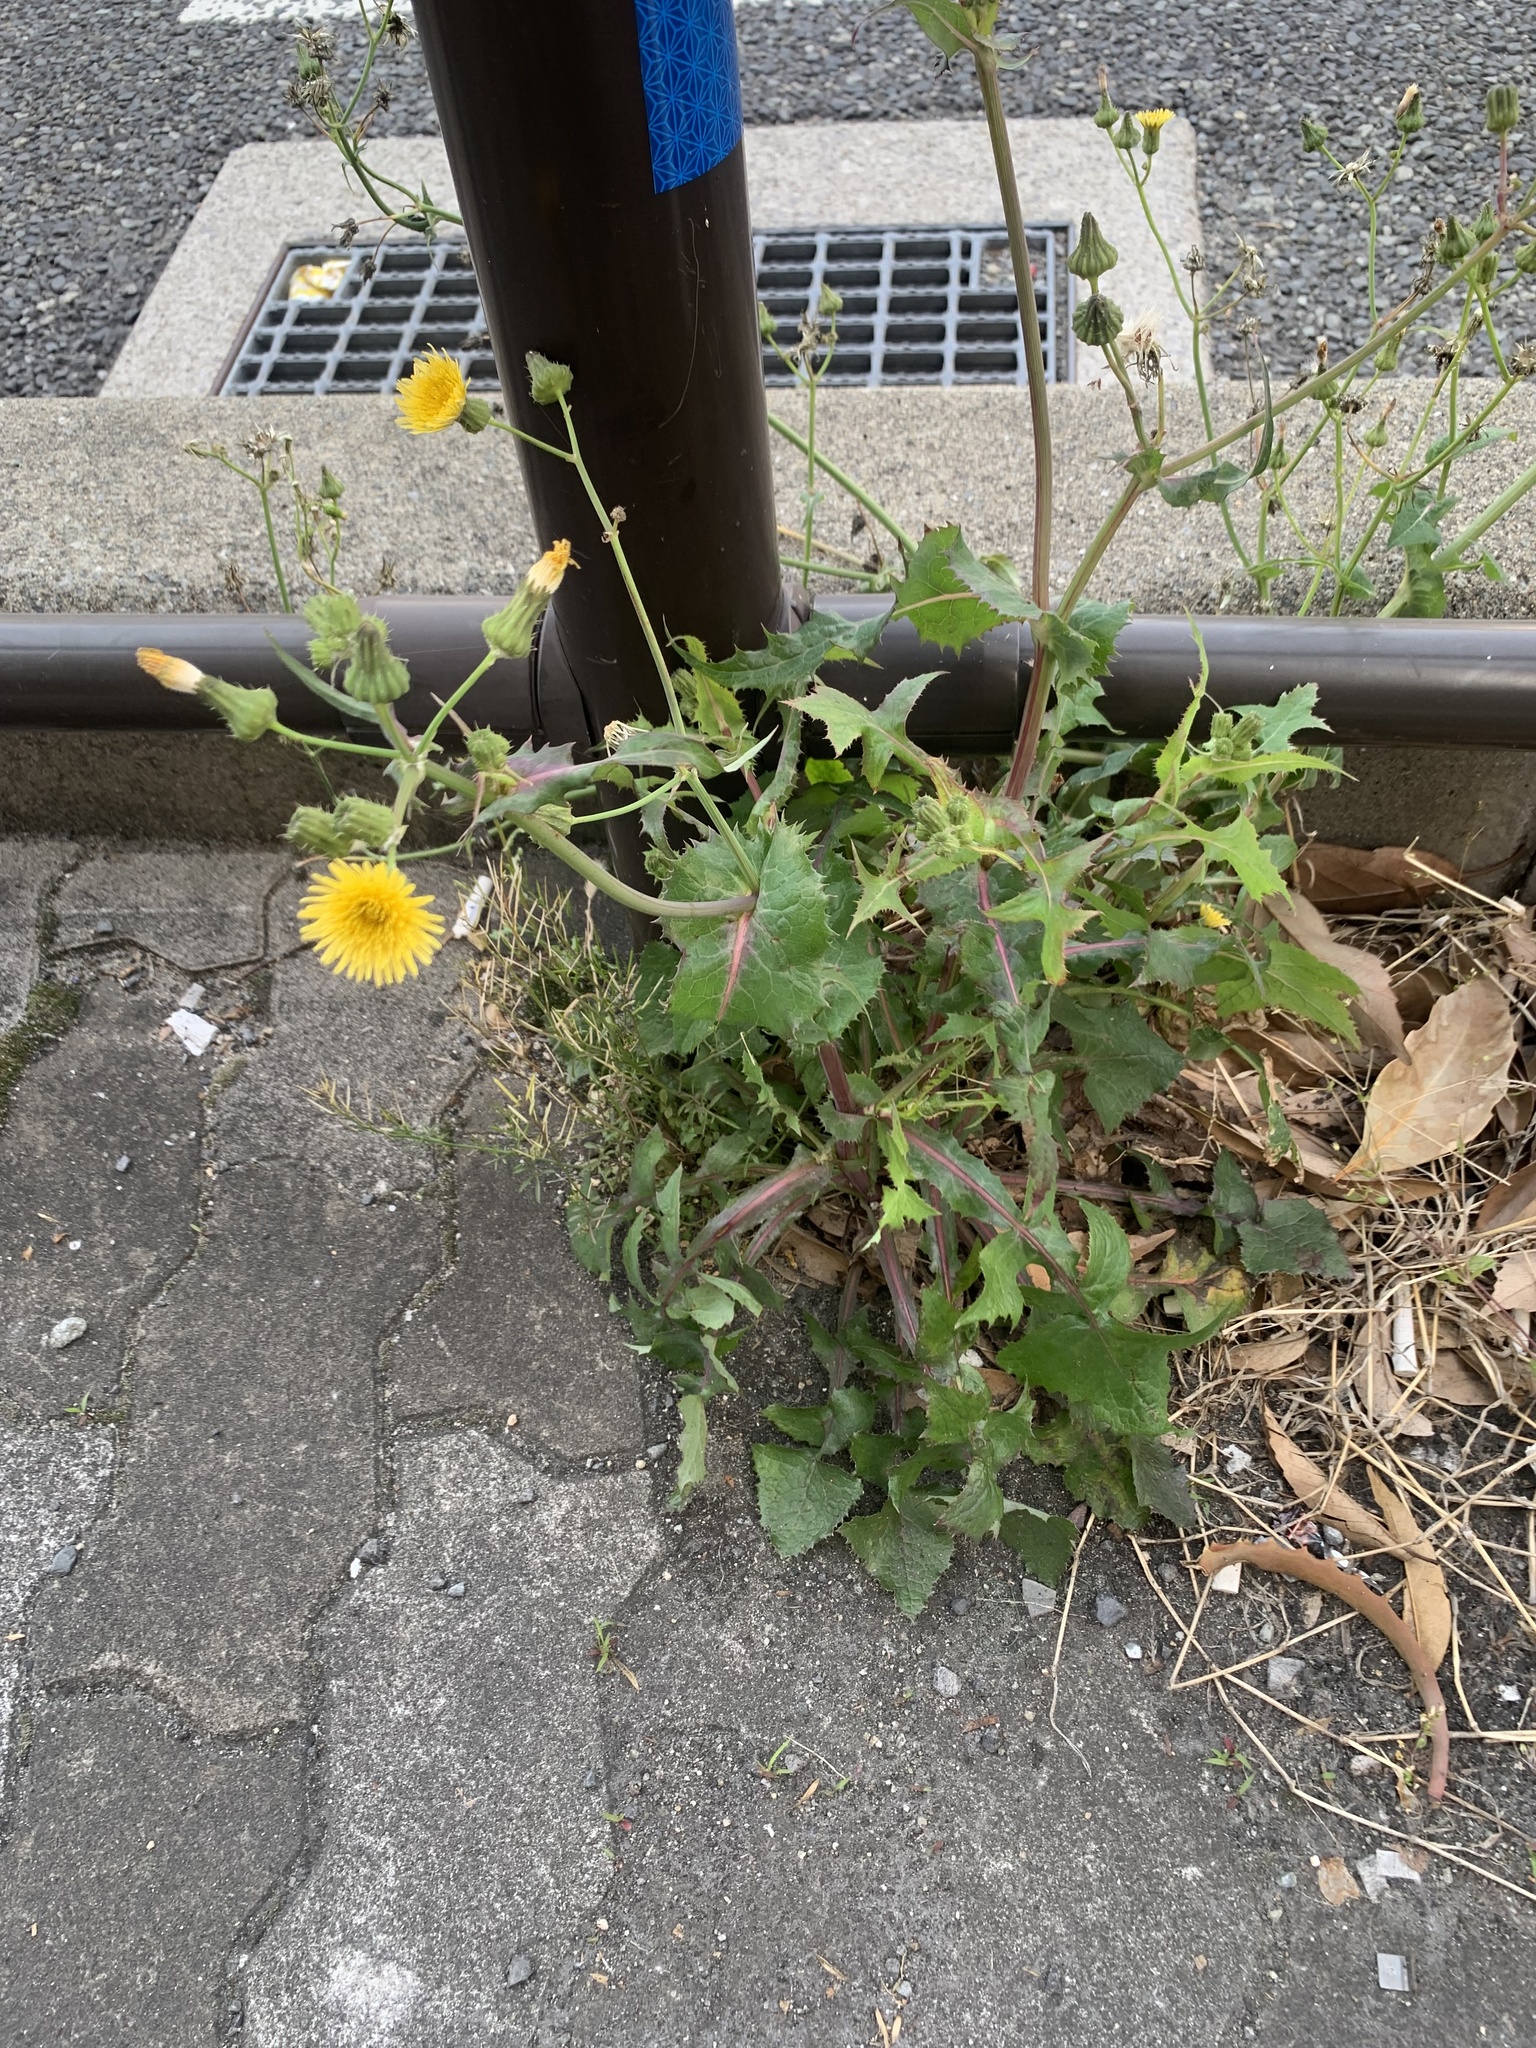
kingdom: Plantae
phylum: Tracheophyta
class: Magnoliopsida
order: Asterales
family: Asteraceae
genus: Sonchus
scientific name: Sonchus oleraceus
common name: Common sowthistle
